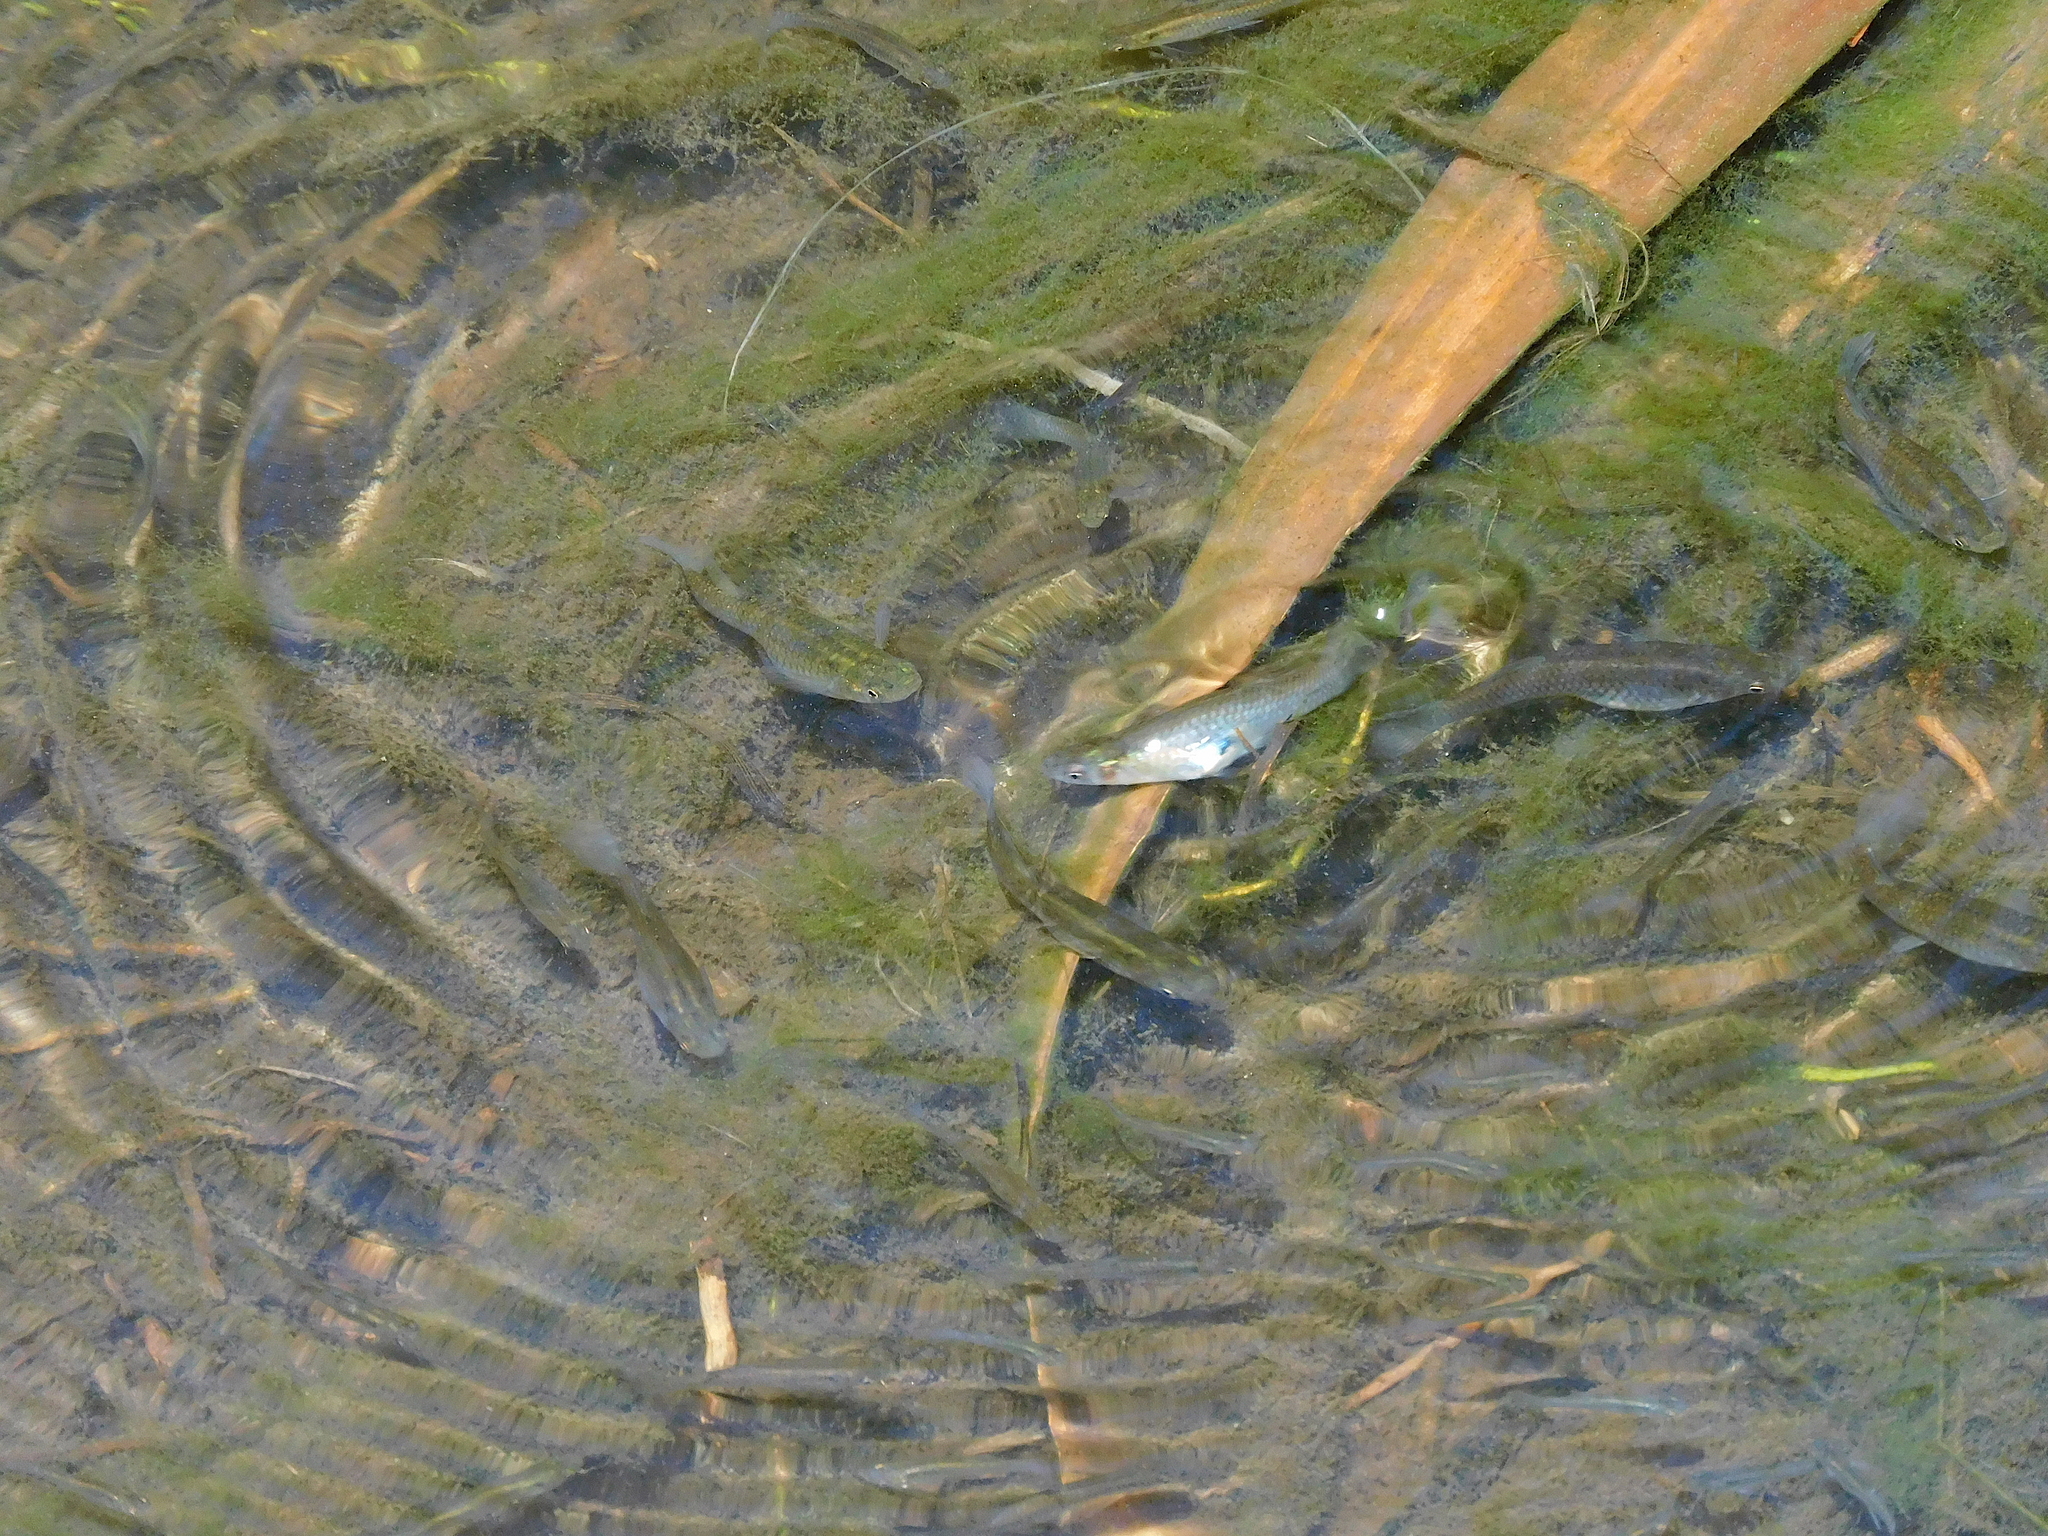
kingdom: Animalia
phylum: Chordata
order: Cyprinodontiformes
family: Poeciliidae
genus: Gambusia
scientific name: Gambusia affinis
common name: Mosquitofish
